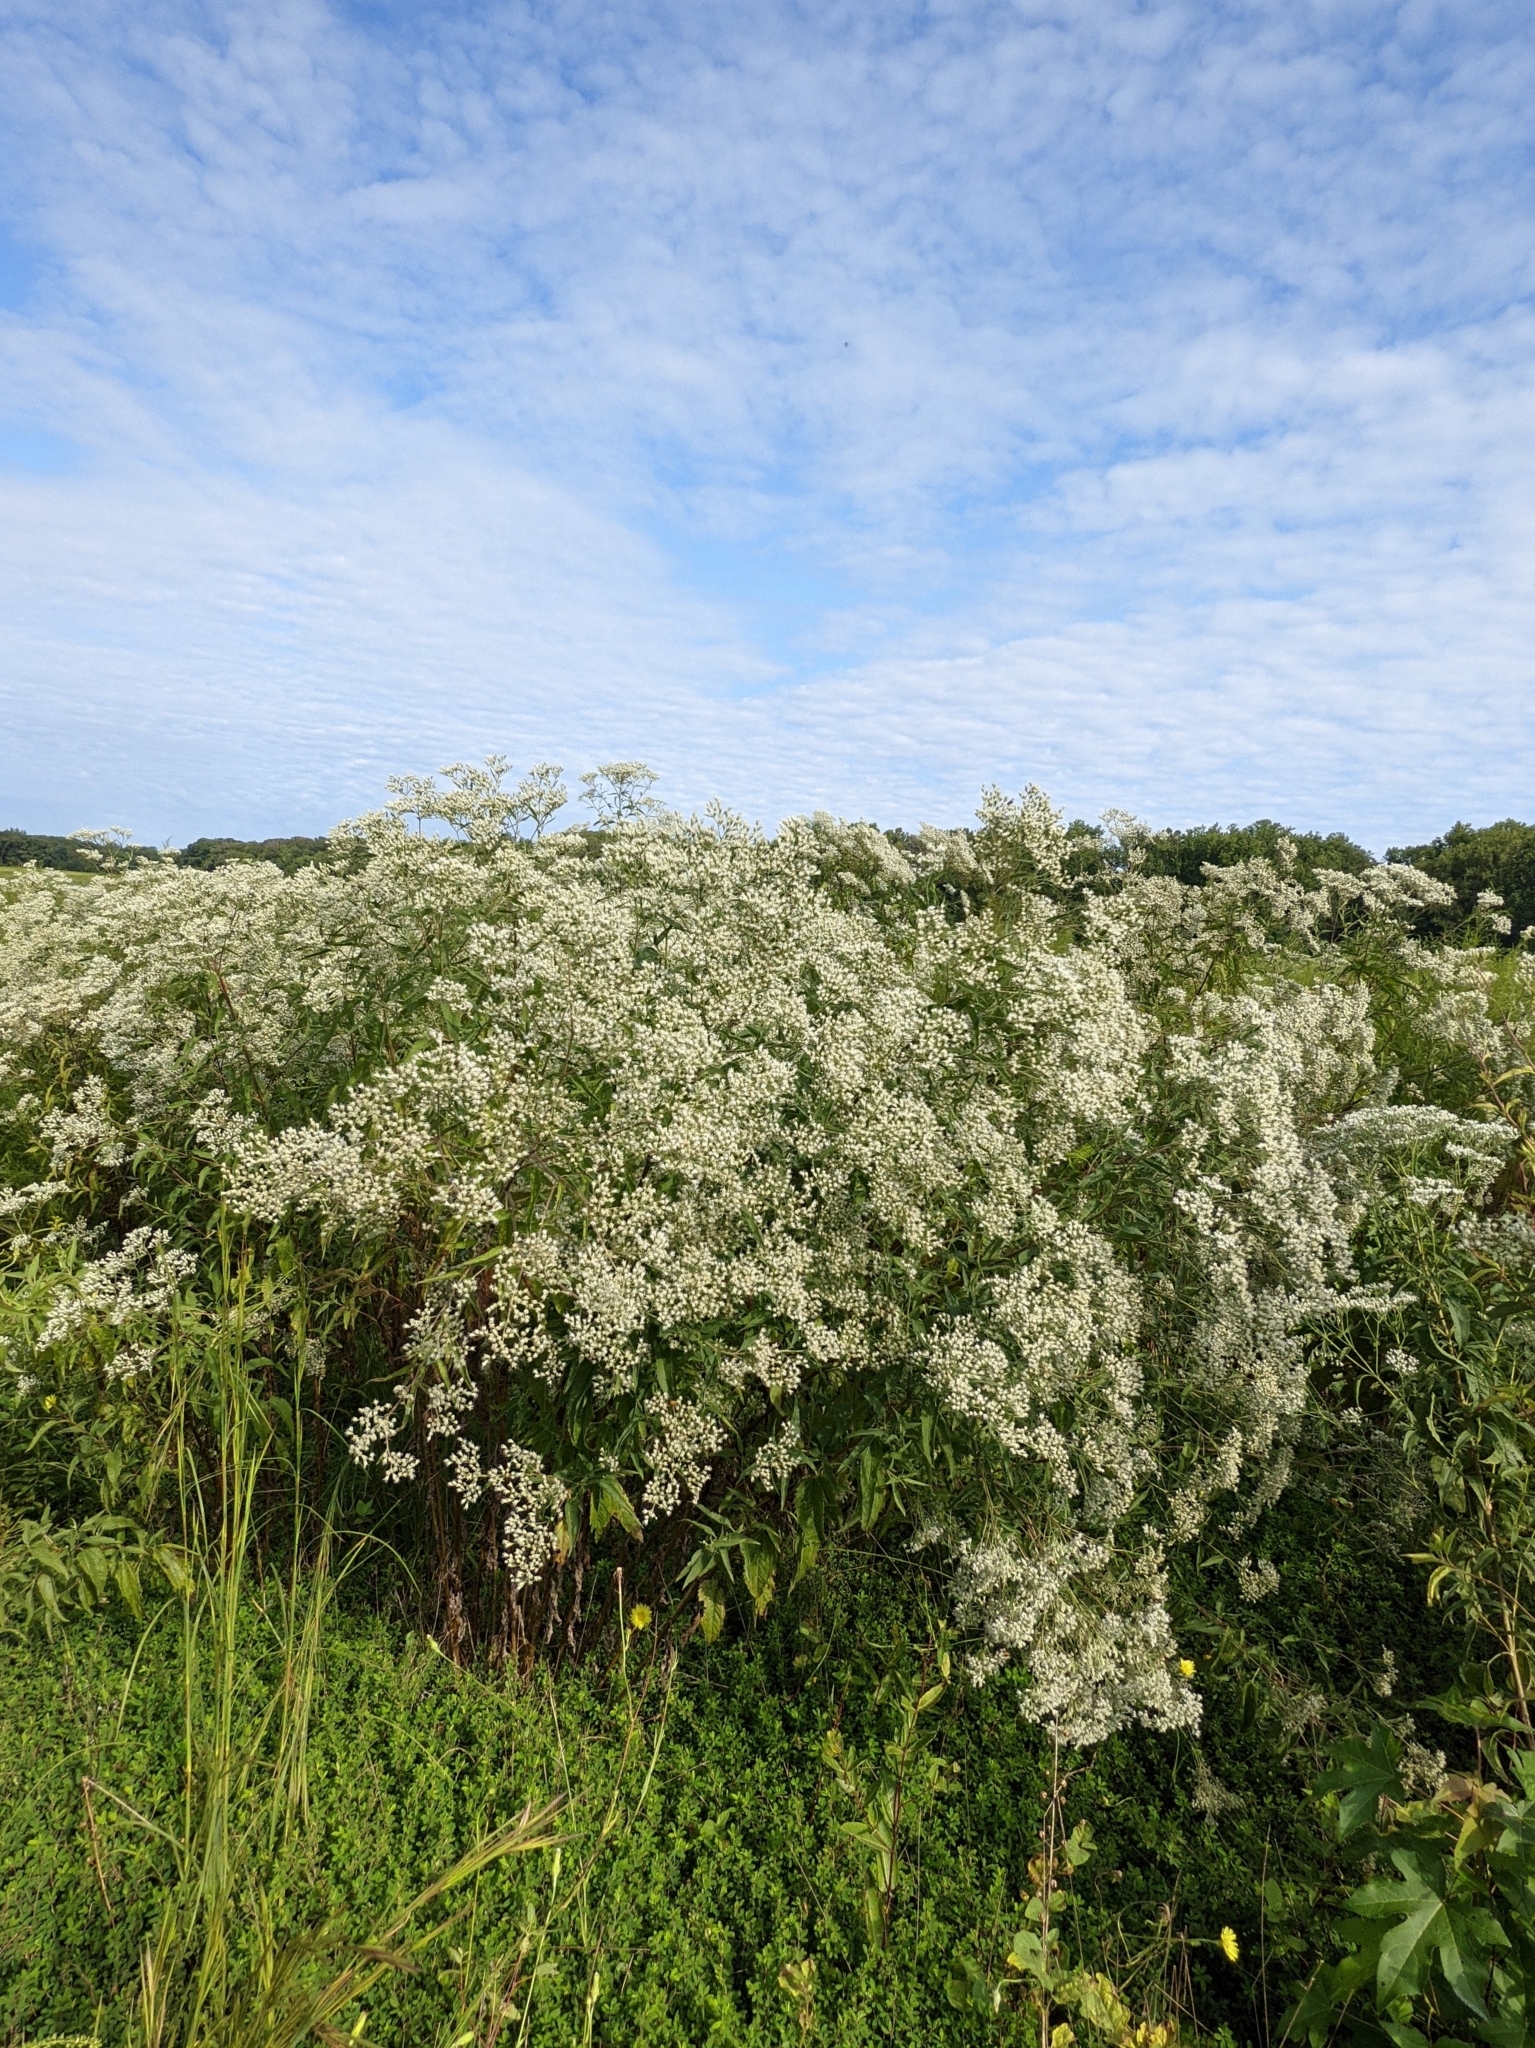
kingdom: Plantae
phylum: Tracheophyta
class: Magnoliopsida
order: Asterales
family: Asteraceae
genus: Eupatorium
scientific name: Eupatorium serotinum
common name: Late boneset
